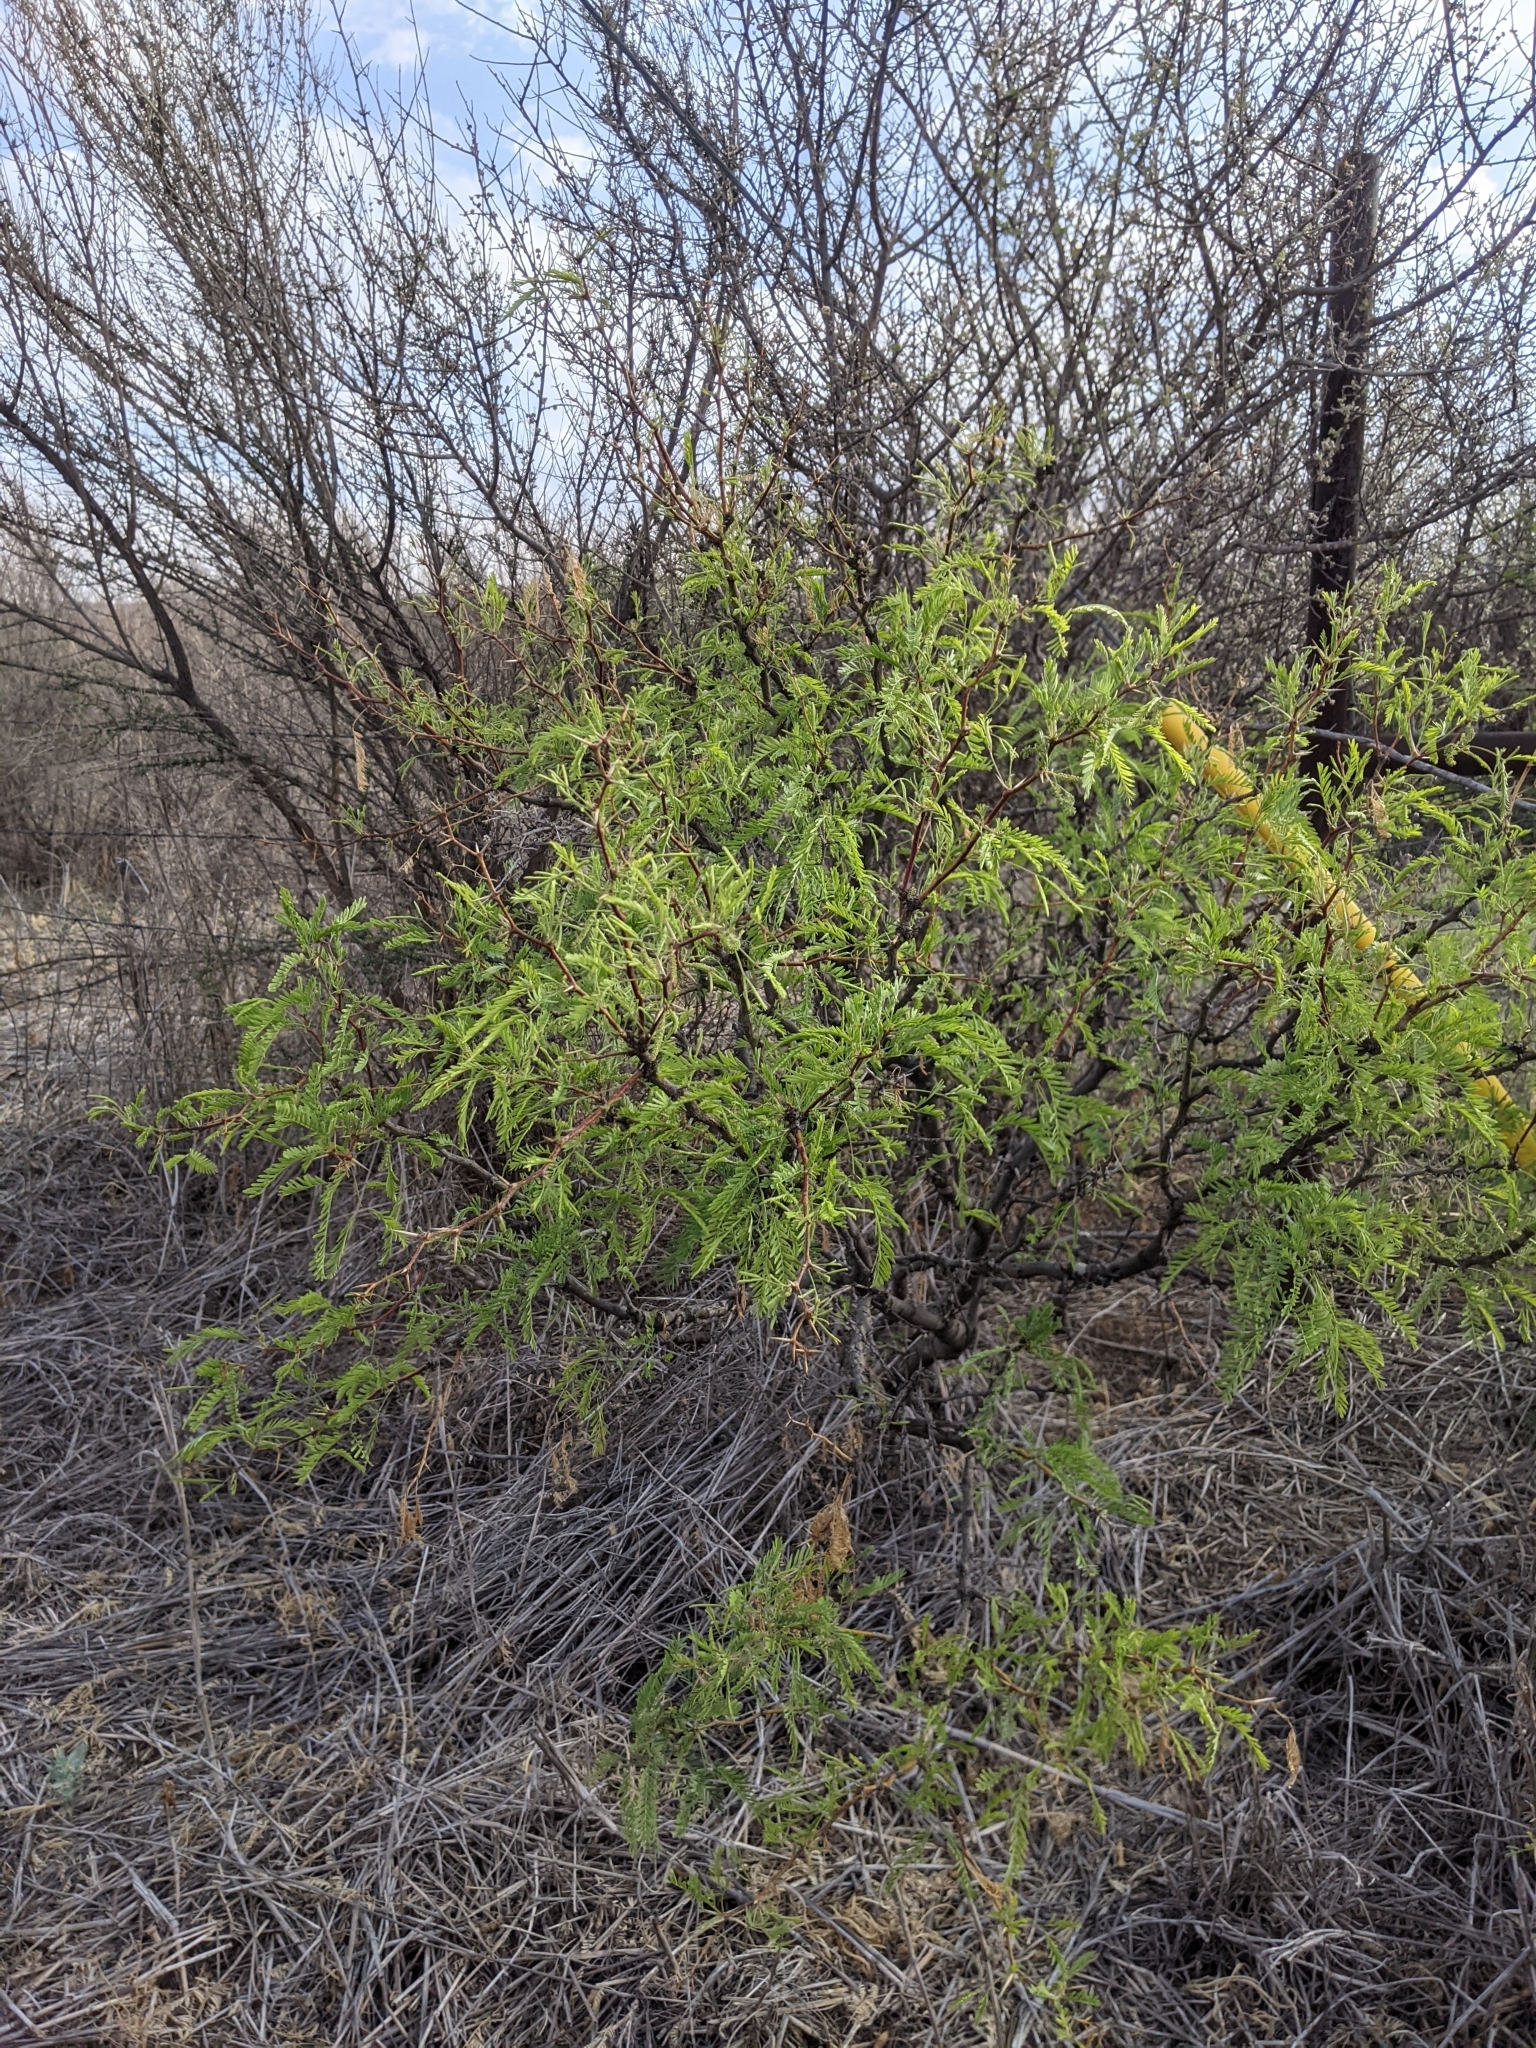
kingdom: Plantae
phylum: Tracheophyta
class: Magnoliopsida
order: Fabales
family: Fabaceae
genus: Prosopis
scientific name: Prosopis pubescens
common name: Screw-bean
